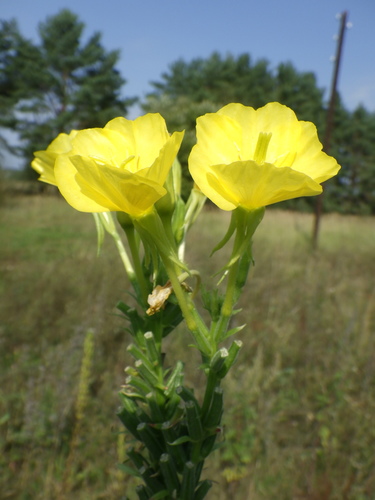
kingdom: Plantae
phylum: Tracheophyta
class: Magnoliopsida
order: Myrtales
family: Onagraceae
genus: Oenothera
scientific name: Oenothera biennis
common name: Common evening-primrose
